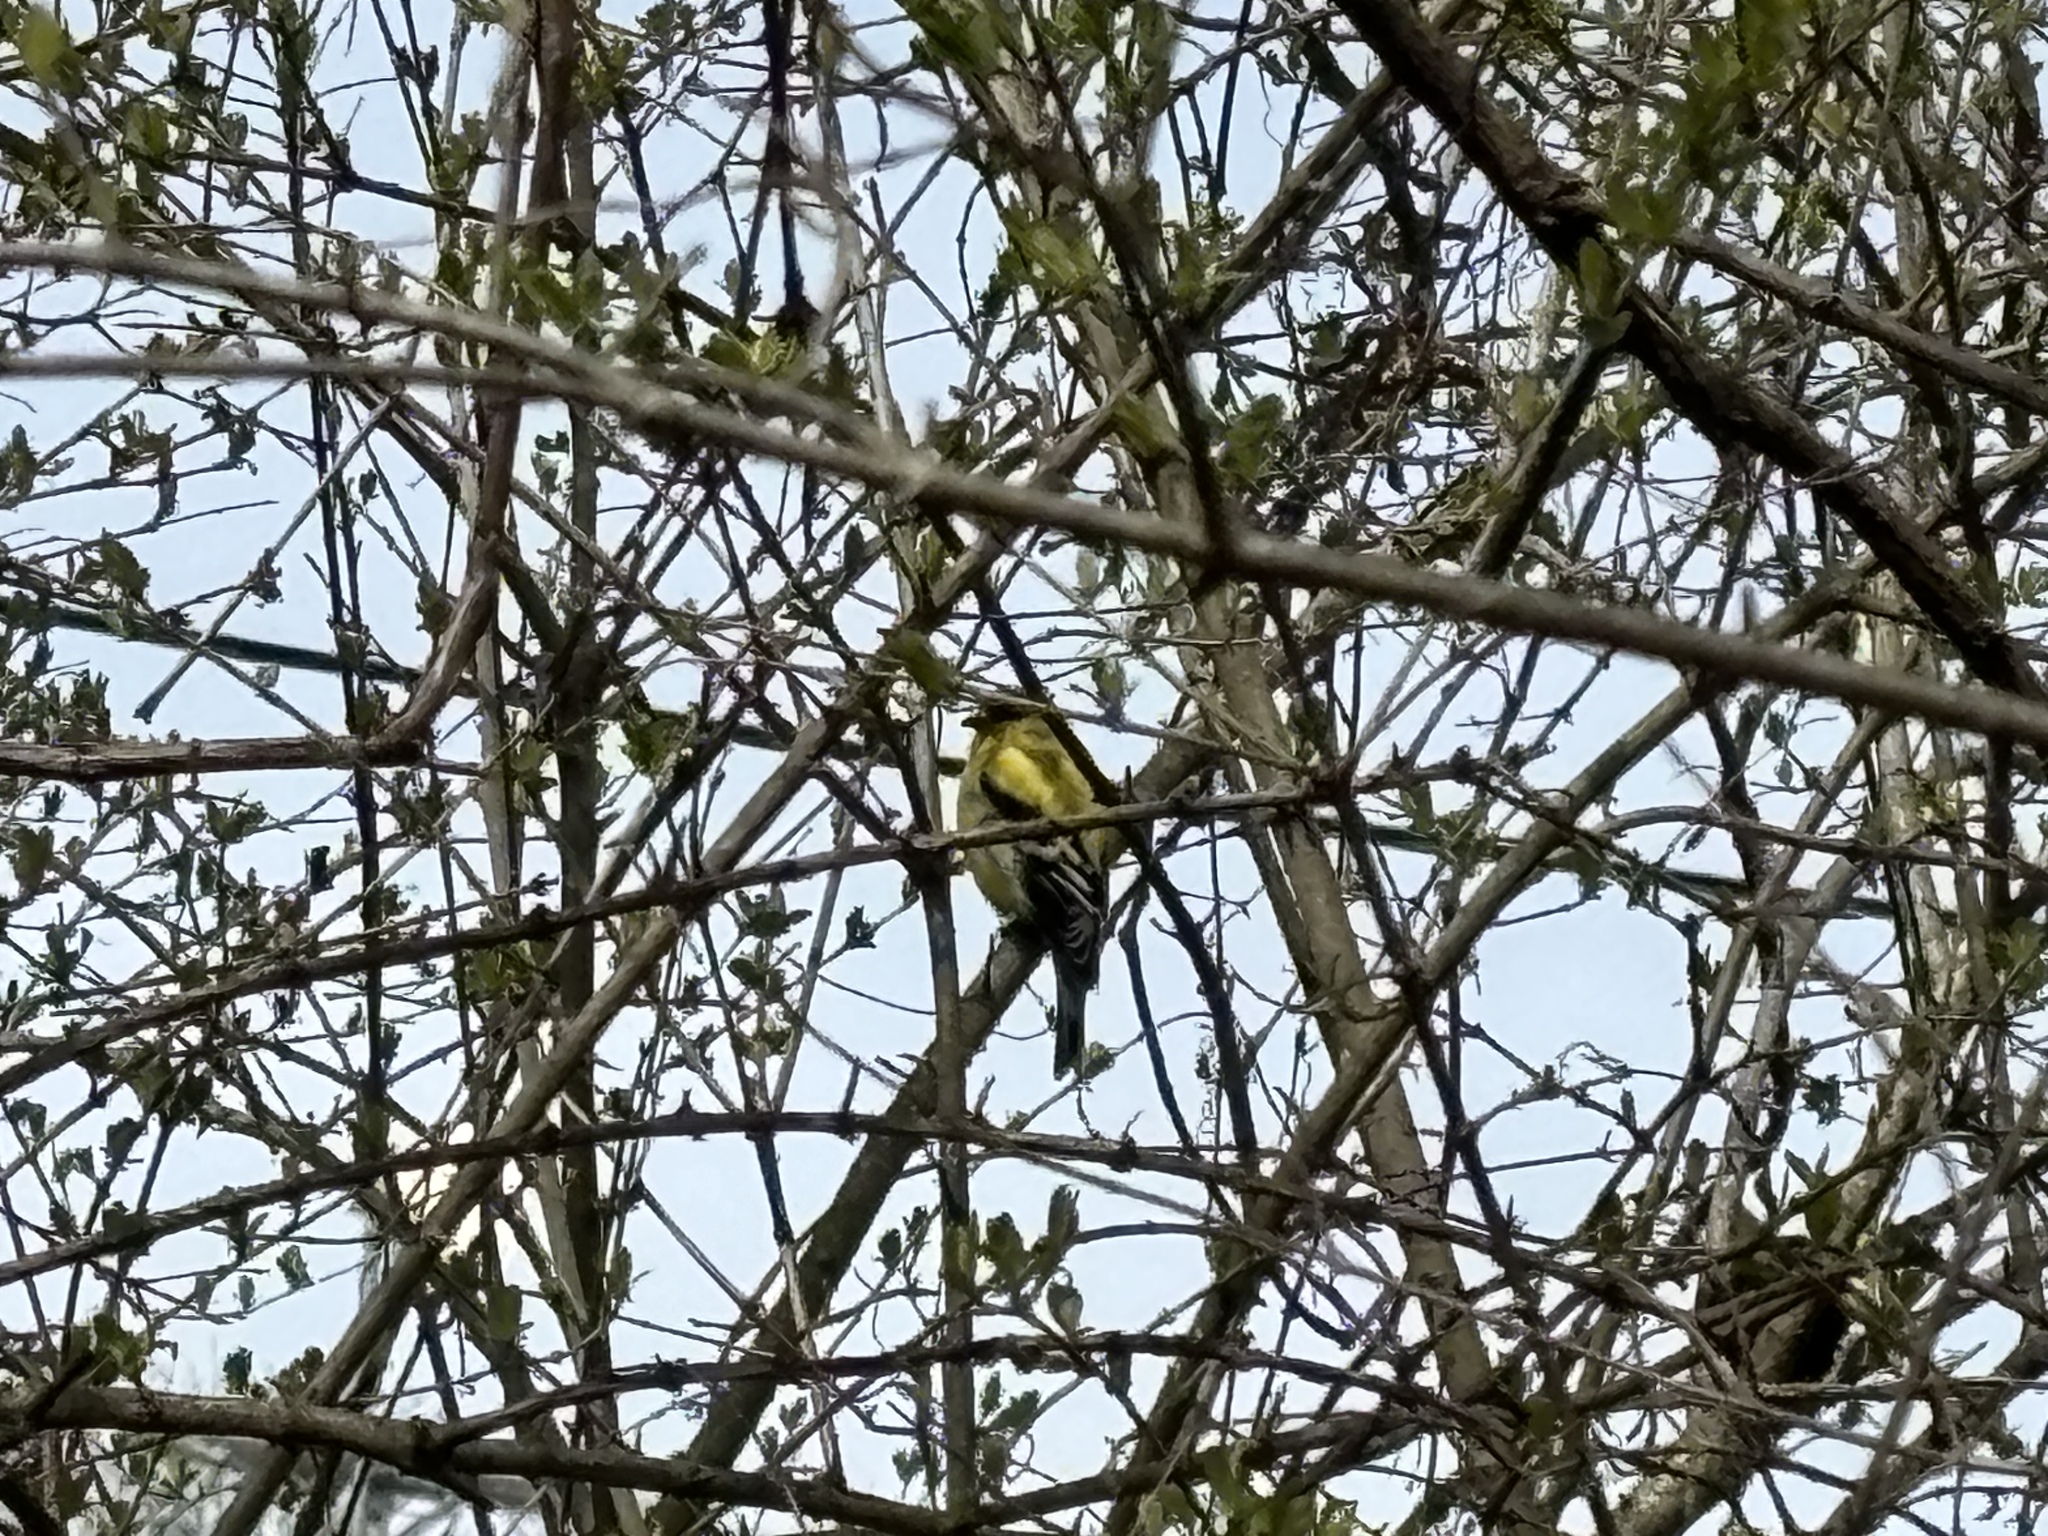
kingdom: Animalia
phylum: Chordata
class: Aves
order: Passeriformes
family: Fringillidae
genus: Spinus
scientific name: Spinus tristis
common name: American goldfinch
